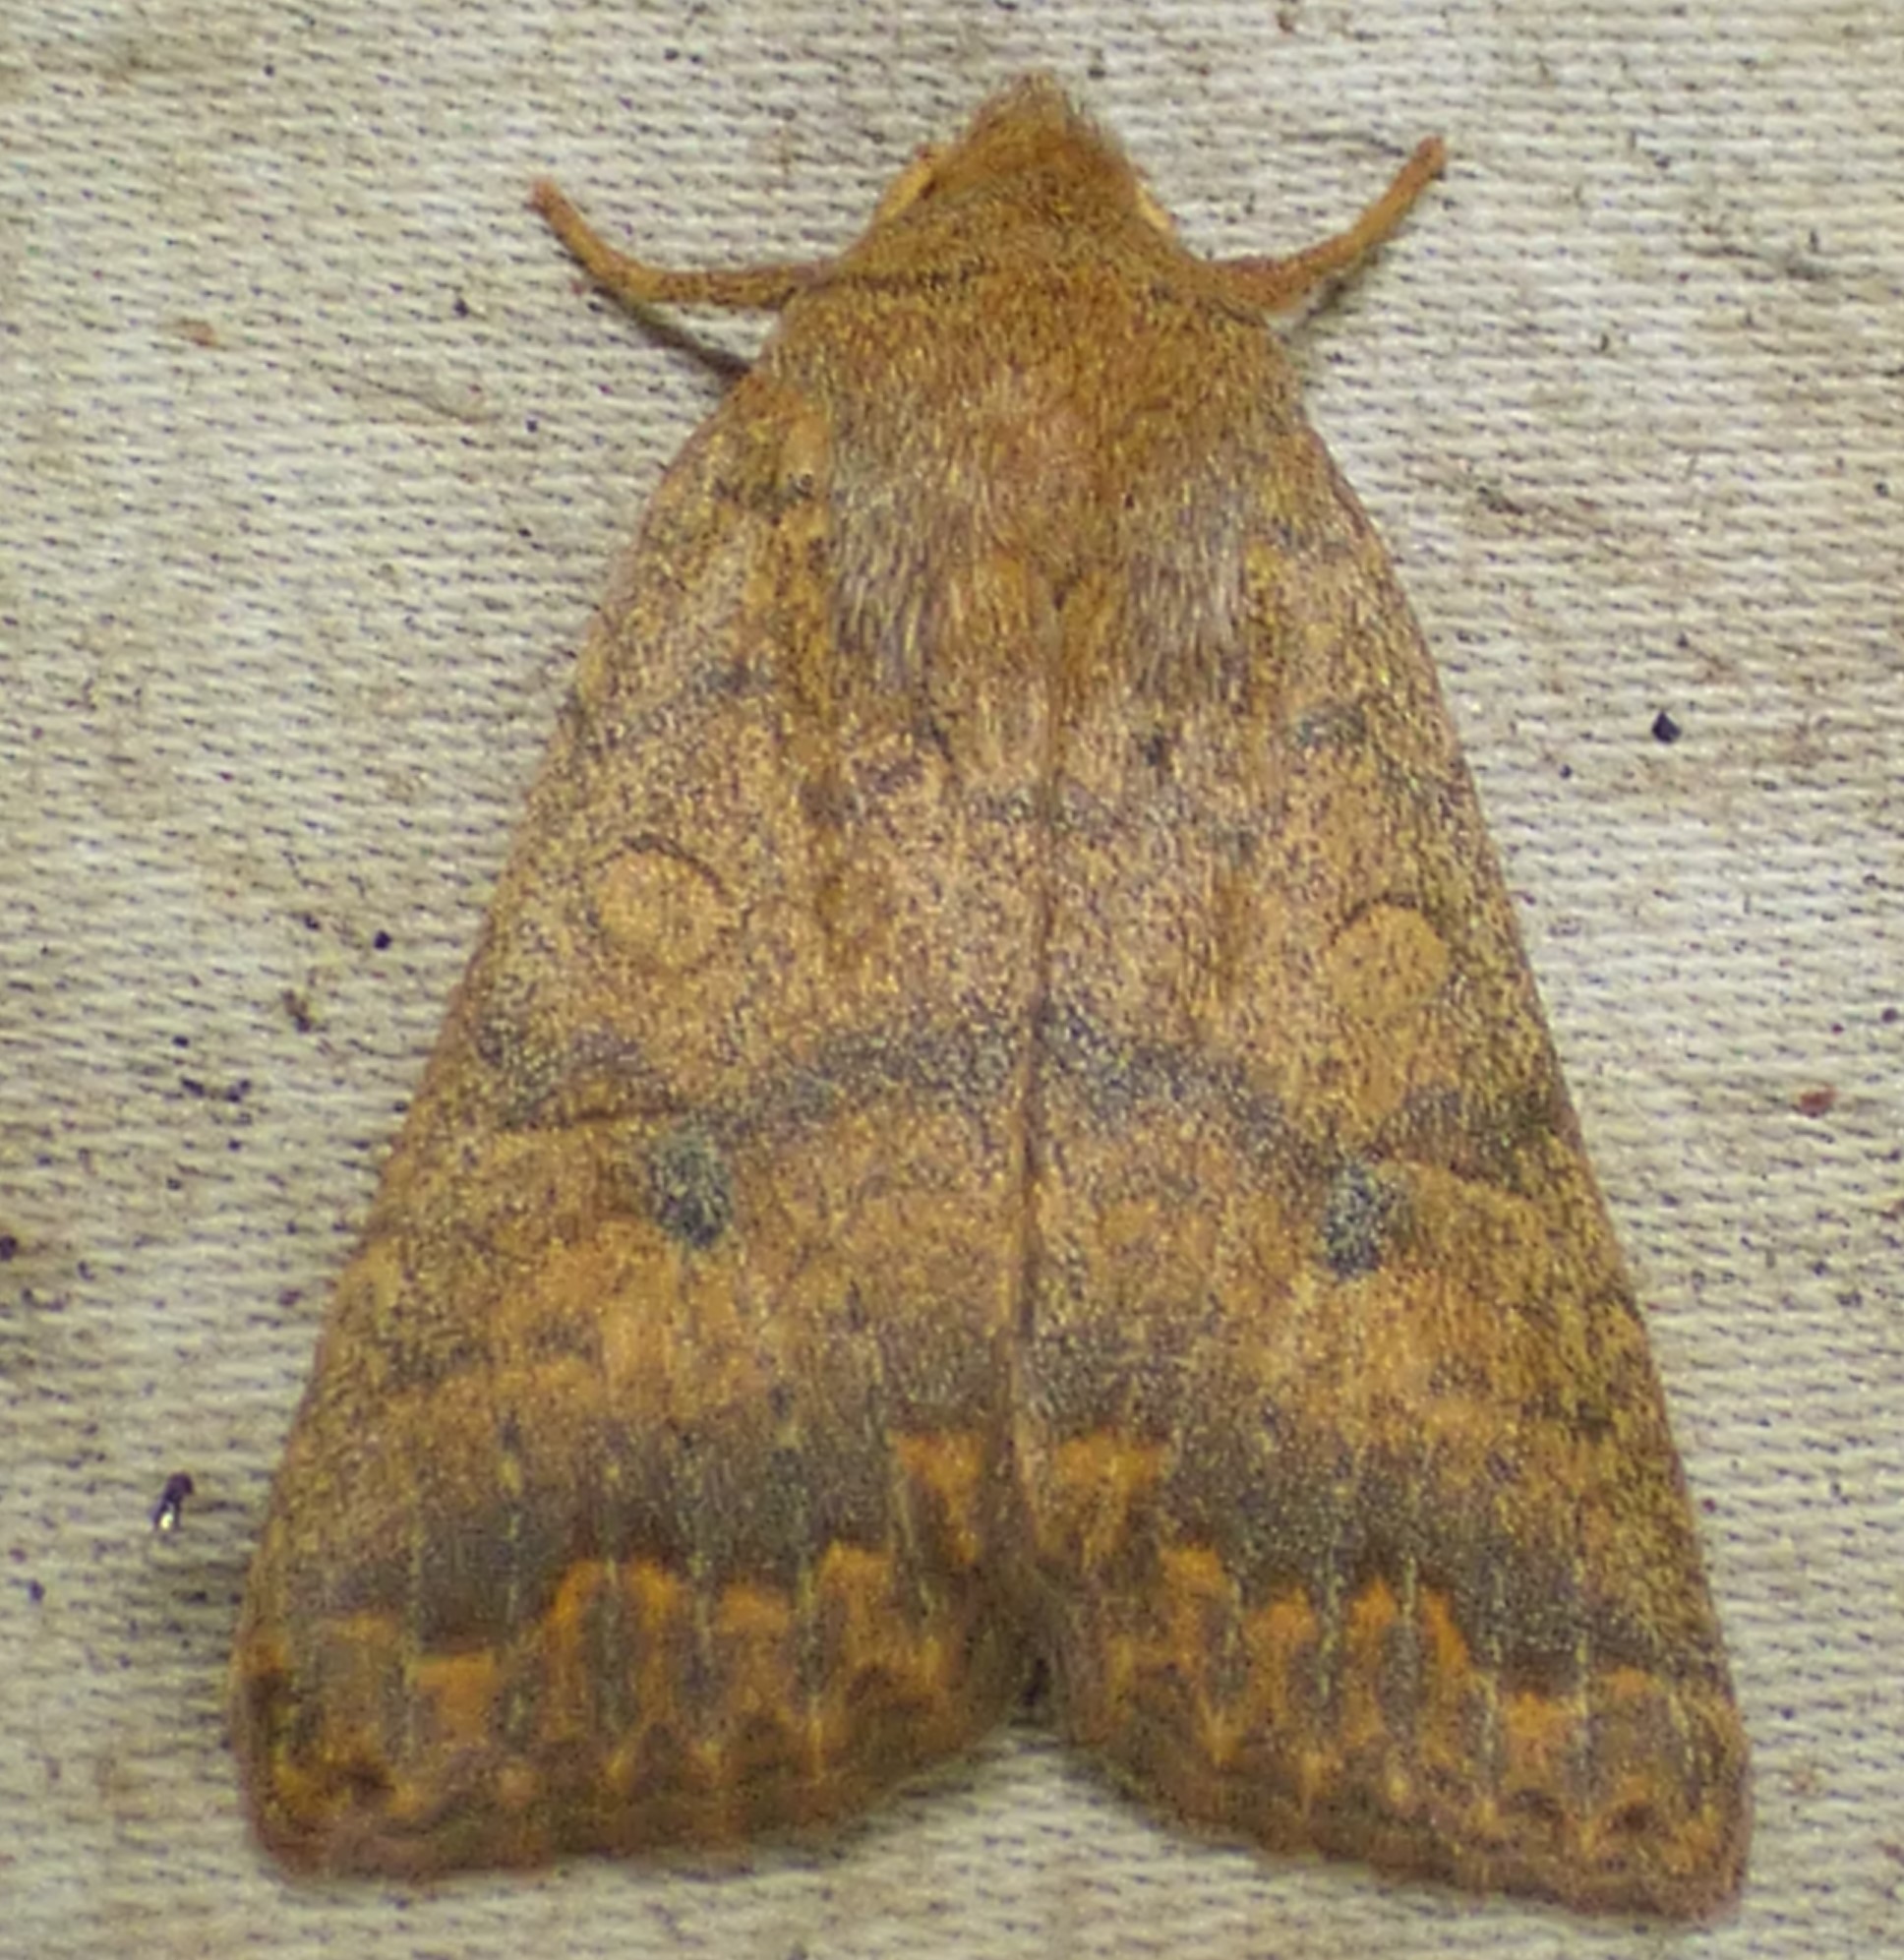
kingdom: Animalia
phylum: Arthropoda
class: Insecta
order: Lepidoptera
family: Noctuidae
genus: Agrochola
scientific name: Agrochola bicolorago
